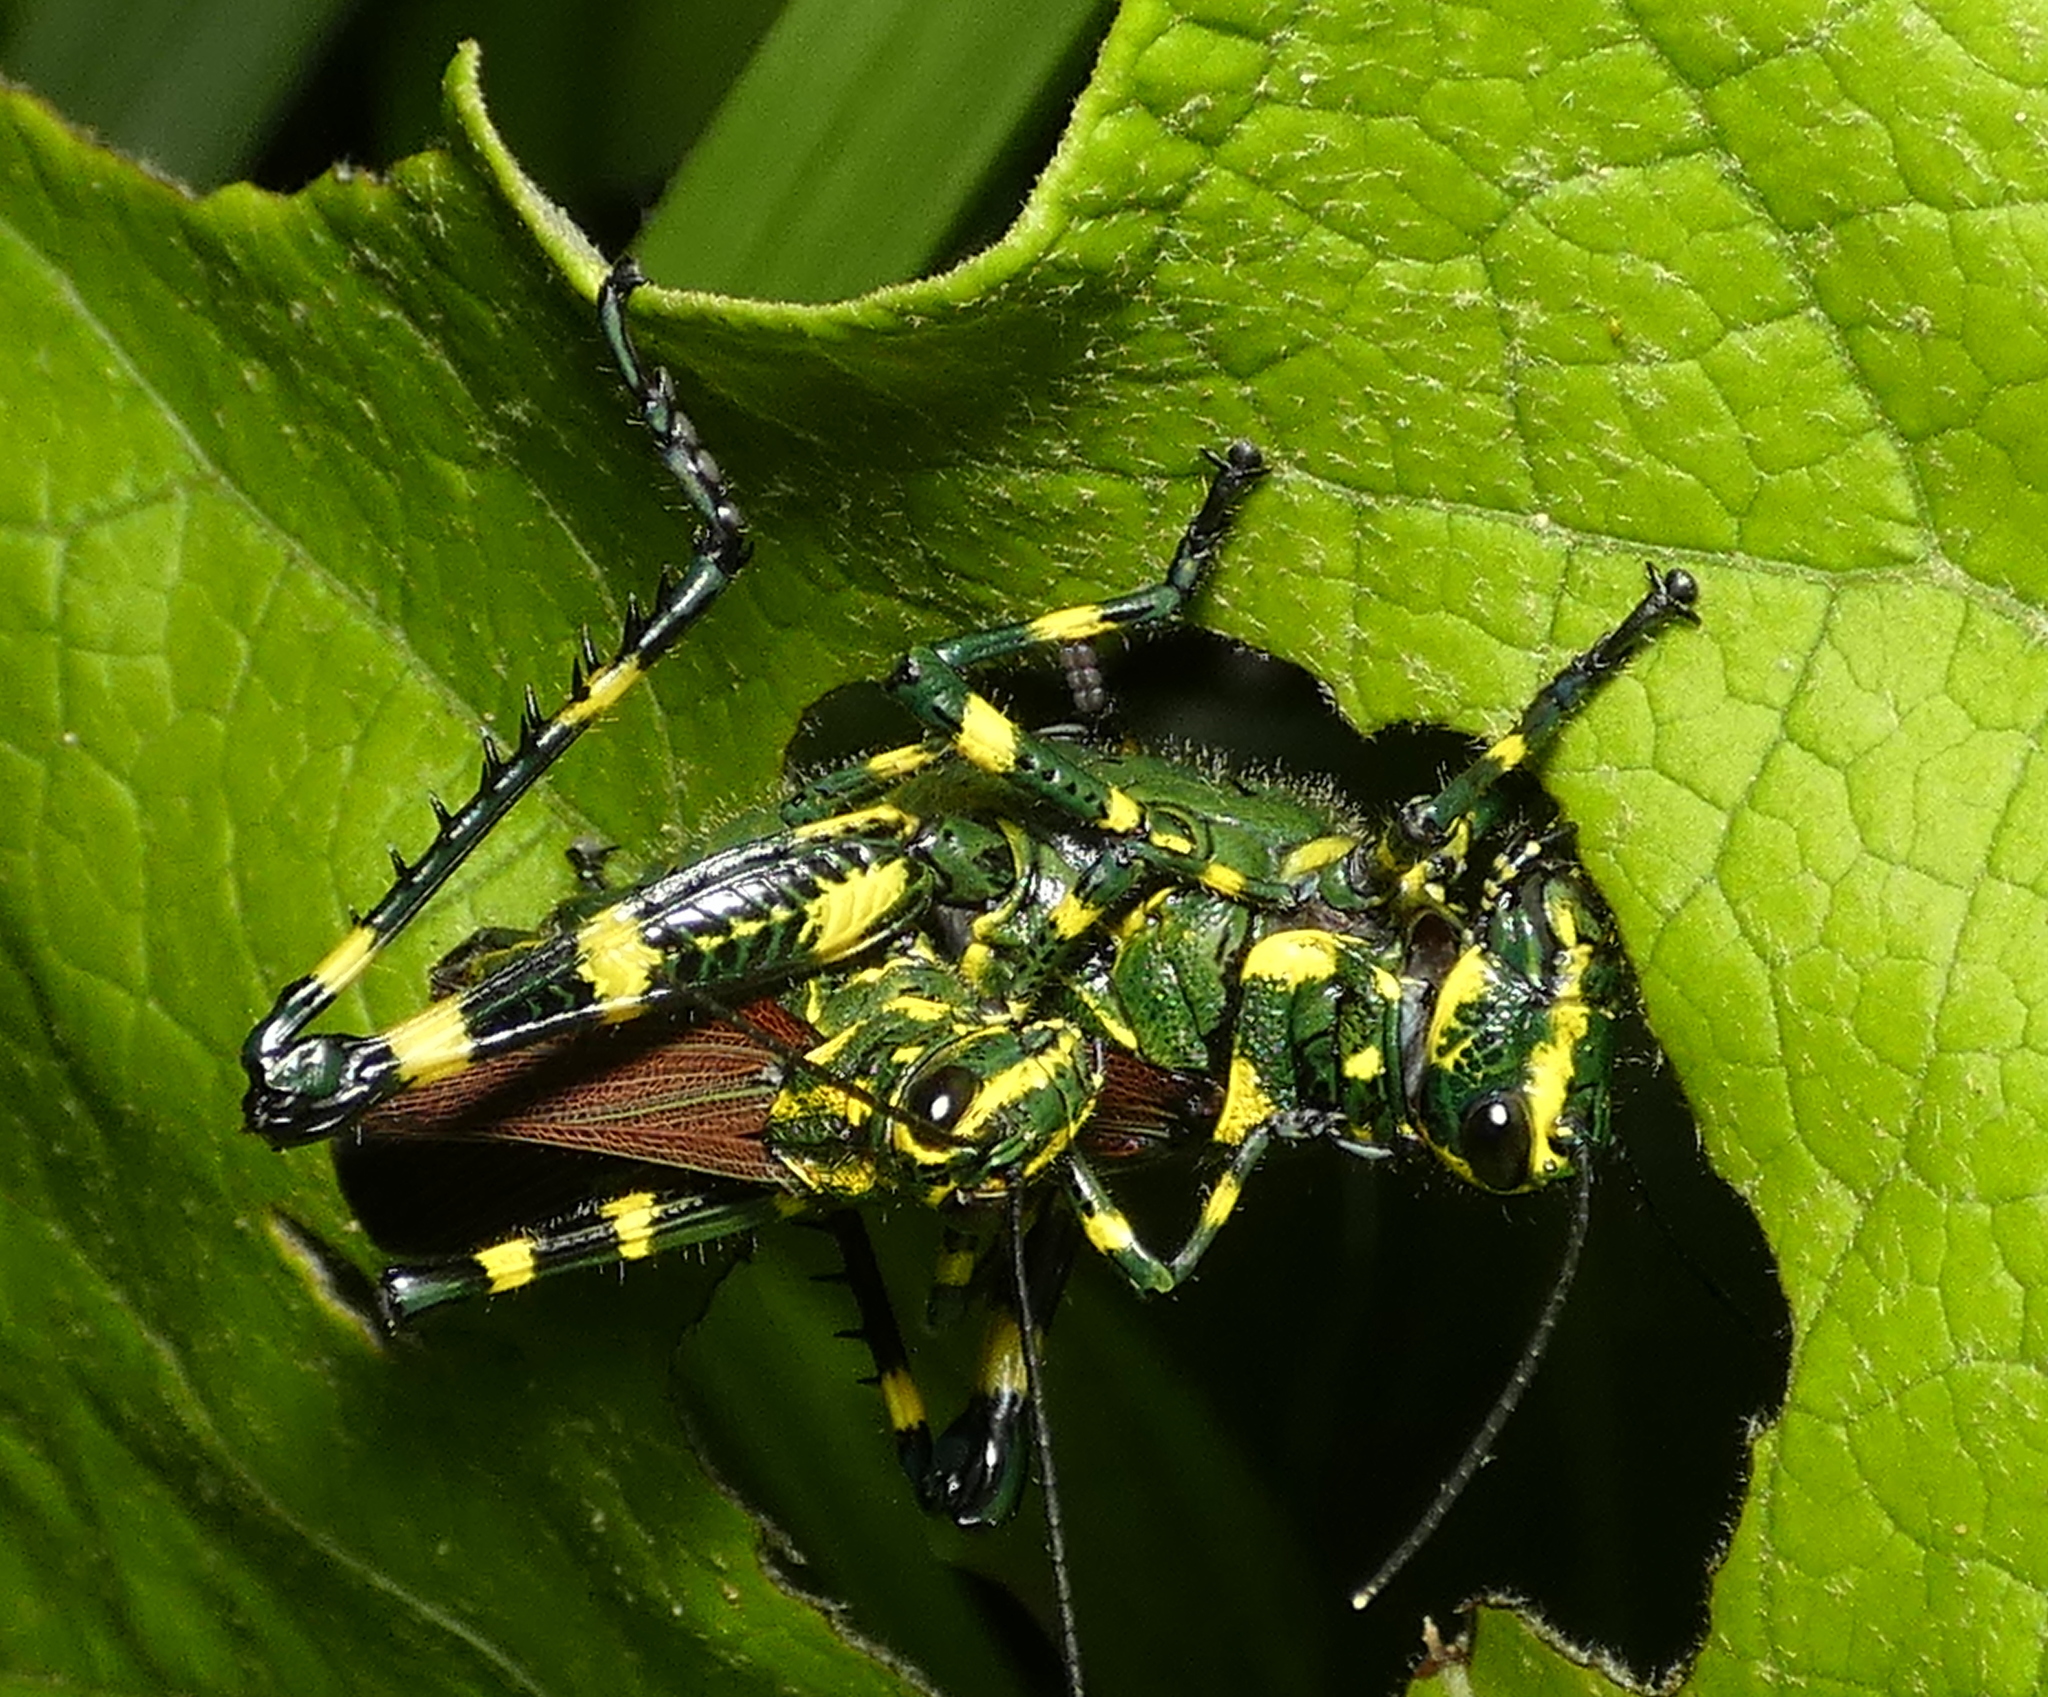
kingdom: Animalia
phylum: Arthropoda
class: Insecta
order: Orthoptera
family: Romaleidae
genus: Chromacris
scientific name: Chromacris speciosa
